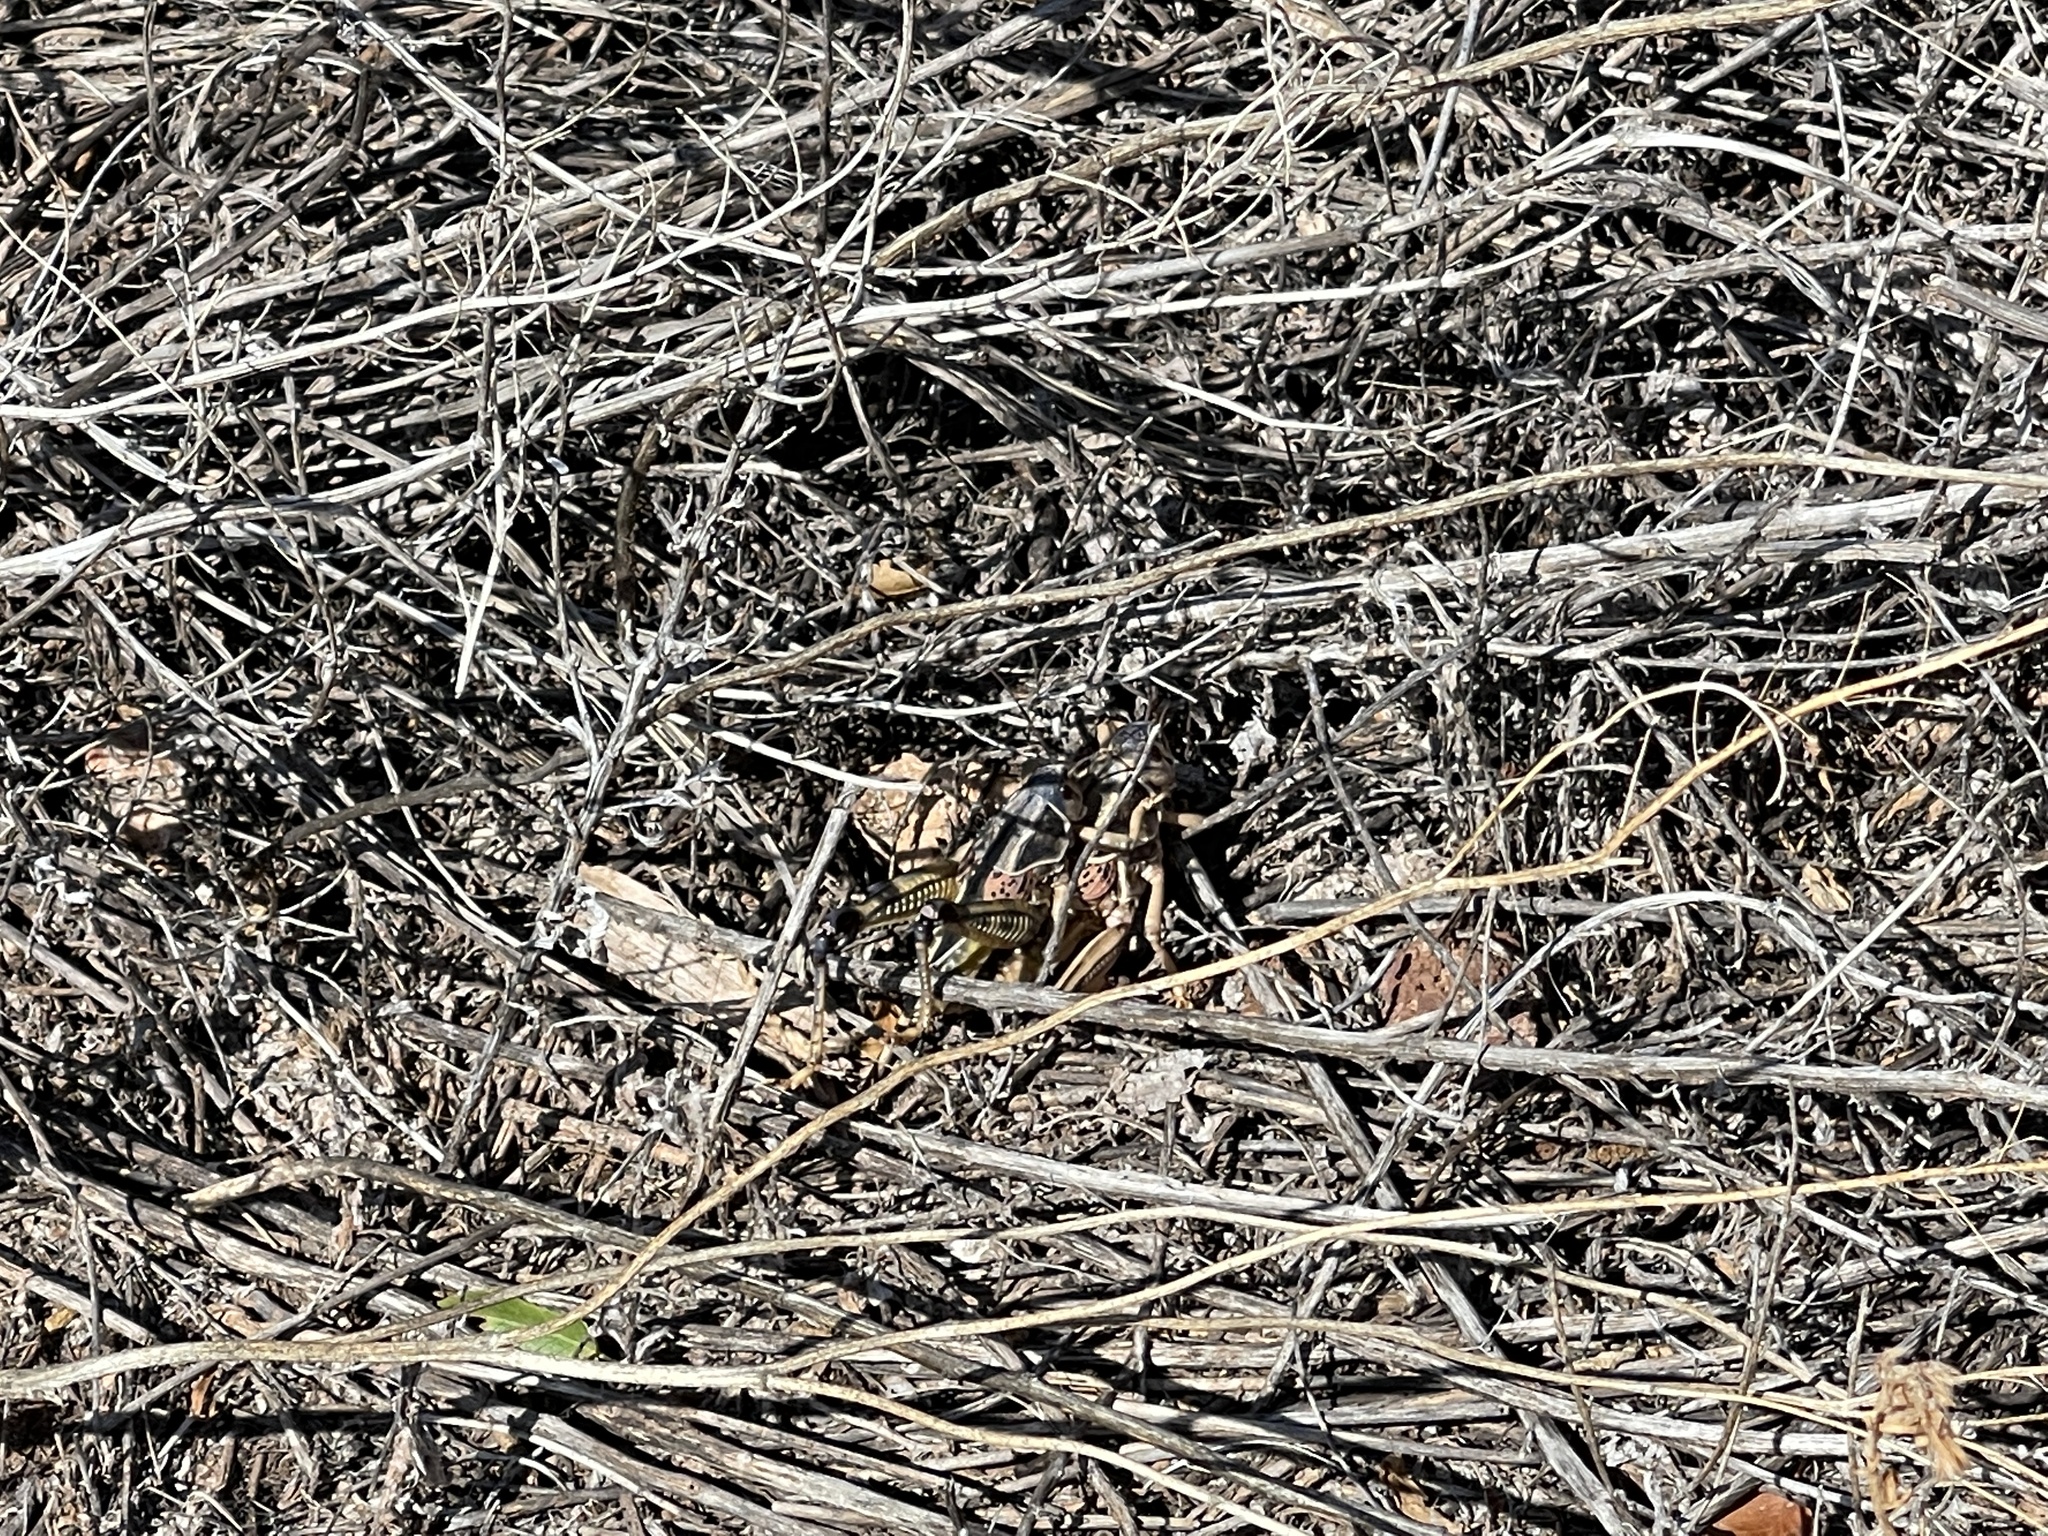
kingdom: Animalia
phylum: Arthropoda
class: Insecta
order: Orthoptera
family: Romaleidae
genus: Brachystola
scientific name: Brachystola magna
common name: Plains lubber grasshopper
